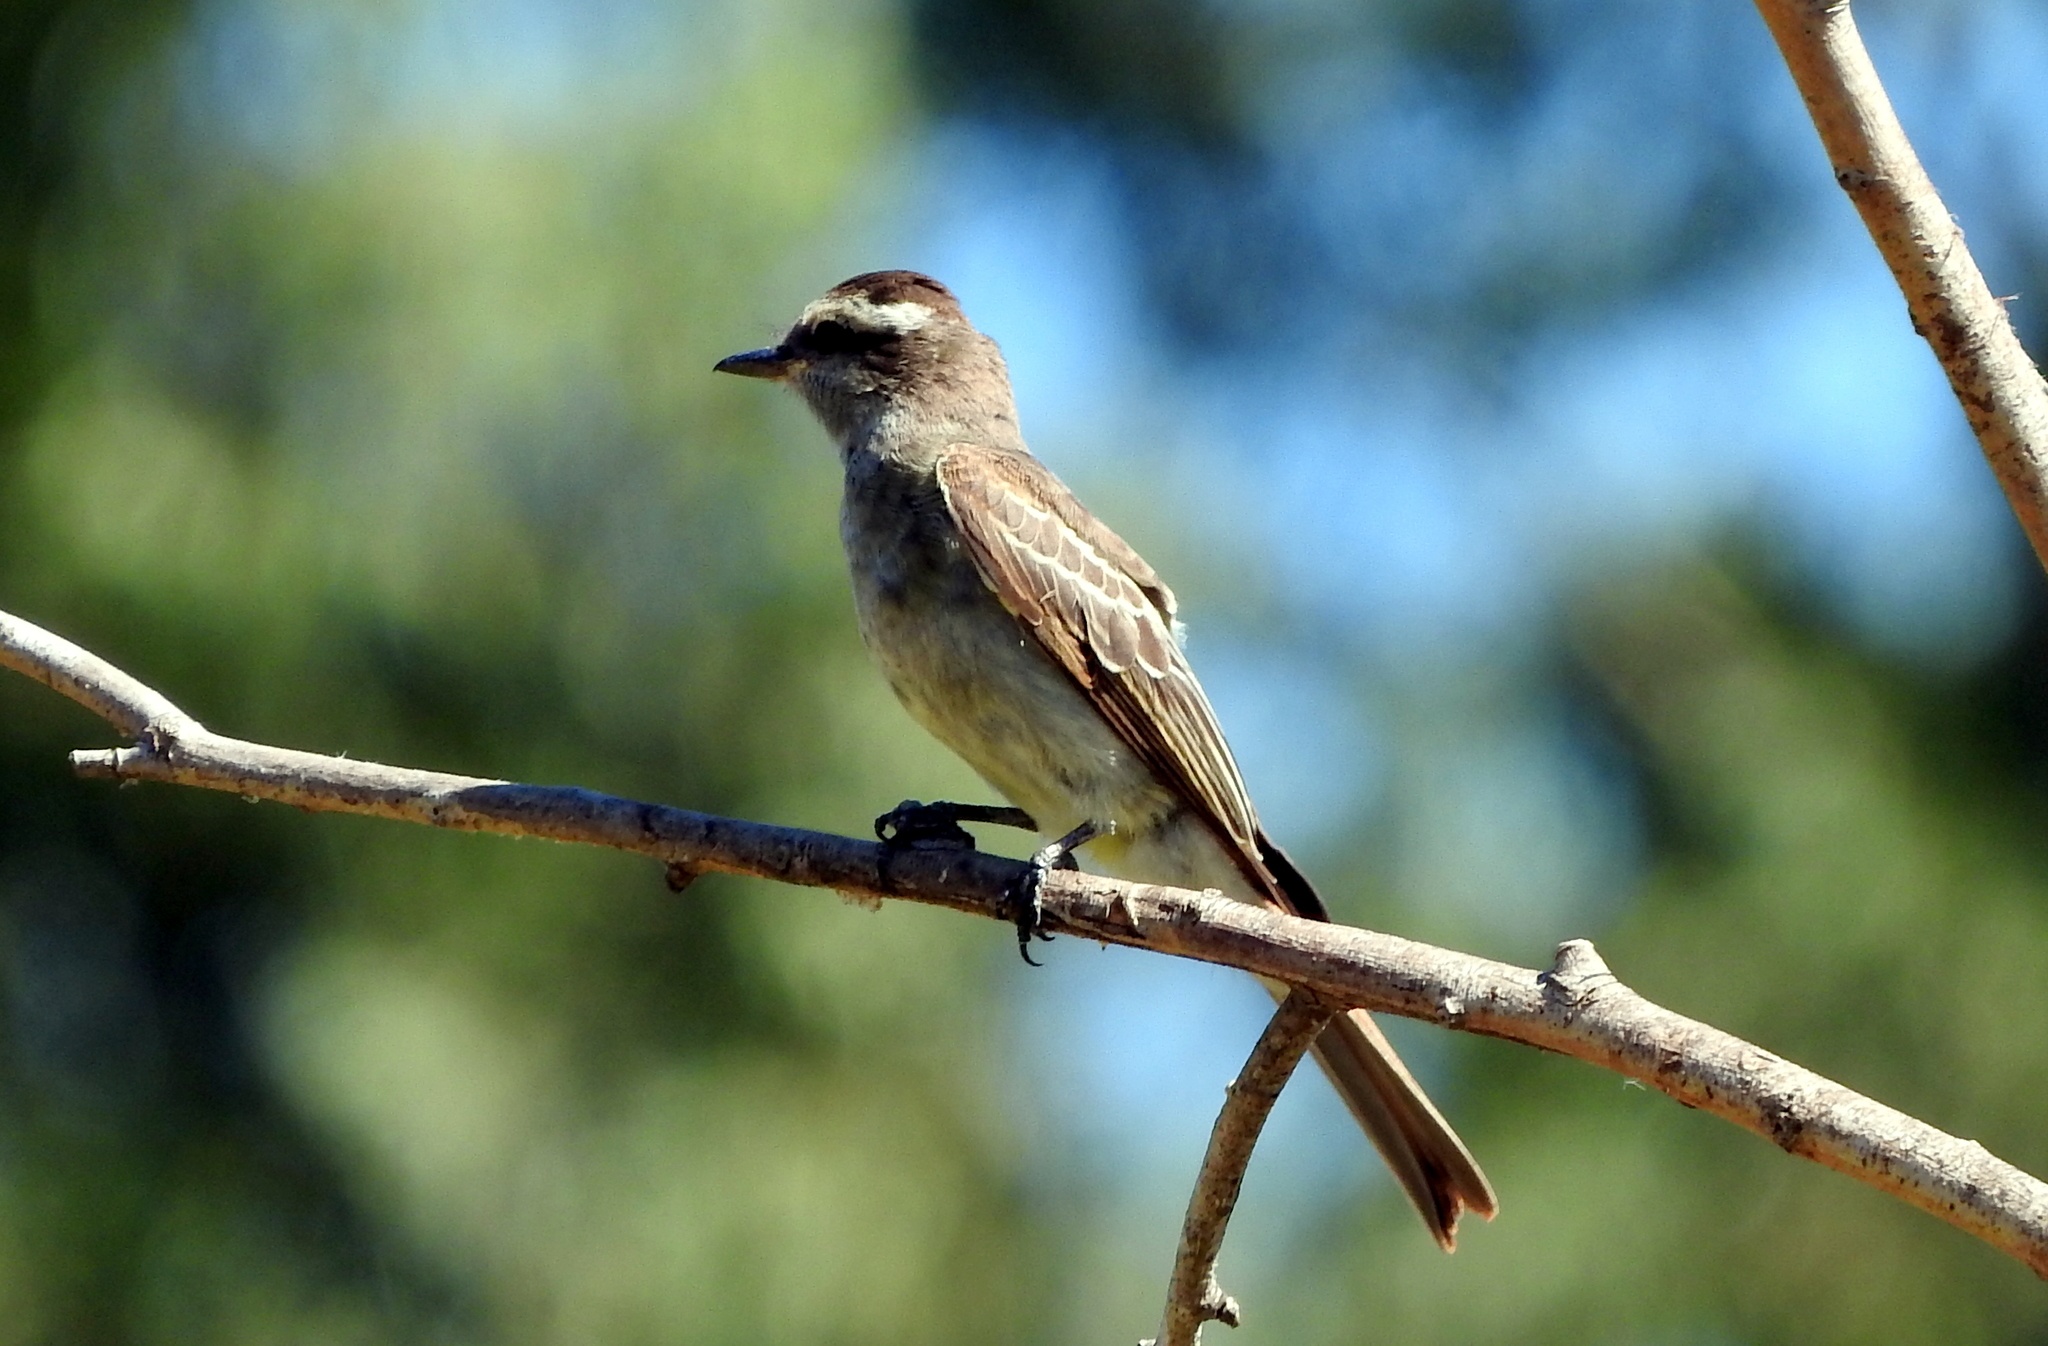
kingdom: Animalia
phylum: Chordata
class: Aves
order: Passeriformes
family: Tyrannidae
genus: Empidonomus
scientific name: Empidonomus aurantioatrocristatus
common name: Crowned slaty flycatcher
